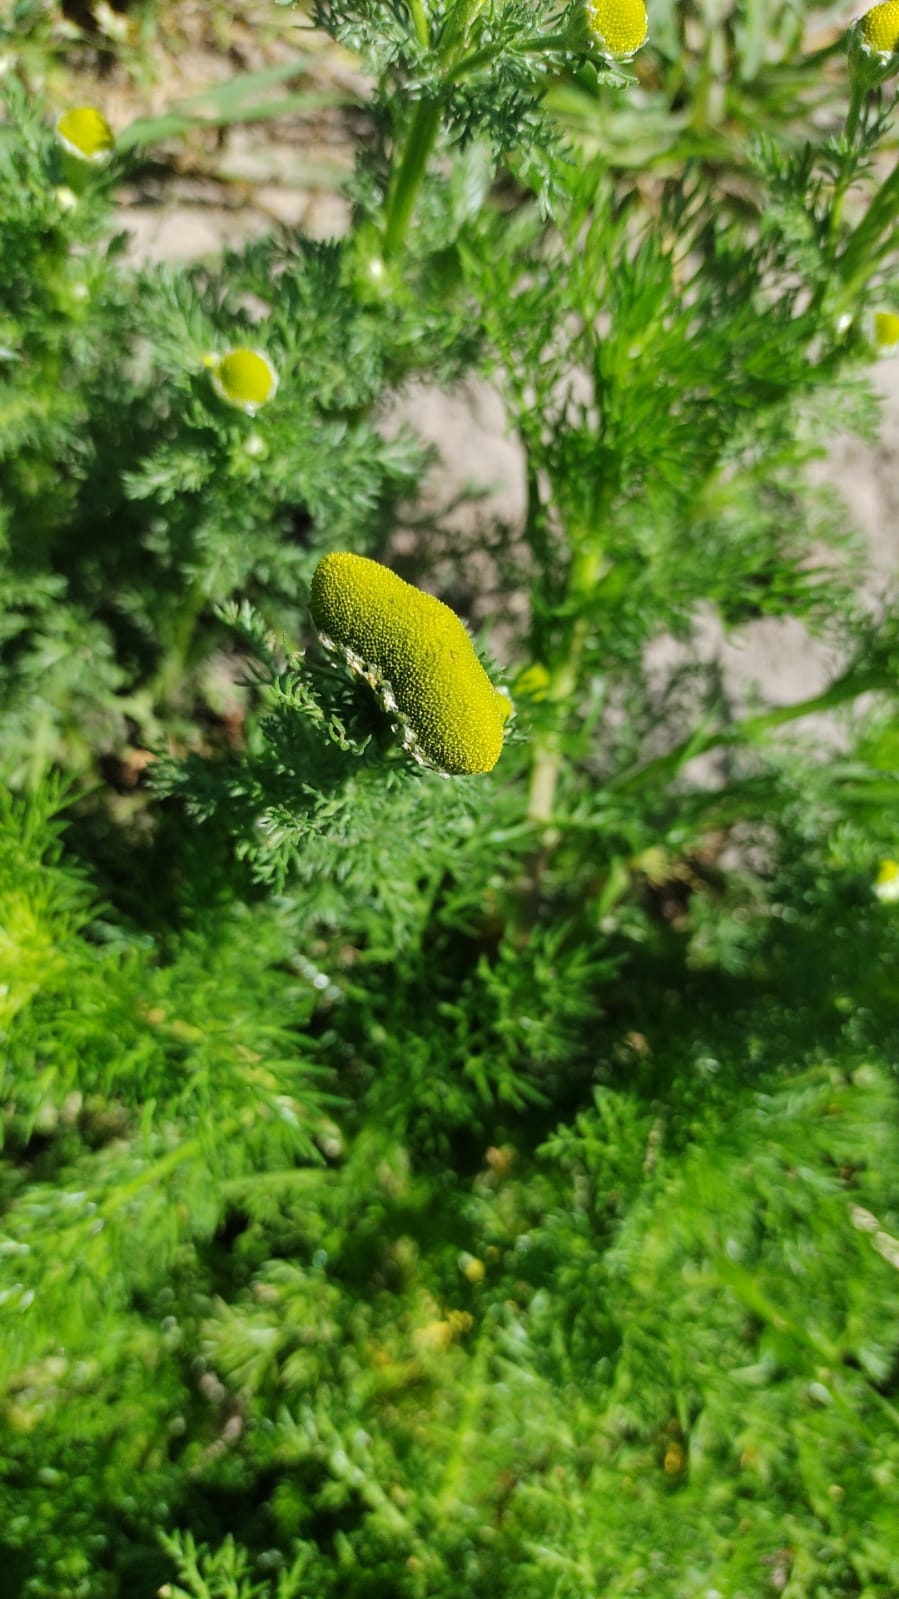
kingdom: Plantae
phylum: Tracheophyta
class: Magnoliopsida
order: Asterales
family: Asteraceae
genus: Matricaria
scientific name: Matricaria discoidea
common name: Disc mayweed
